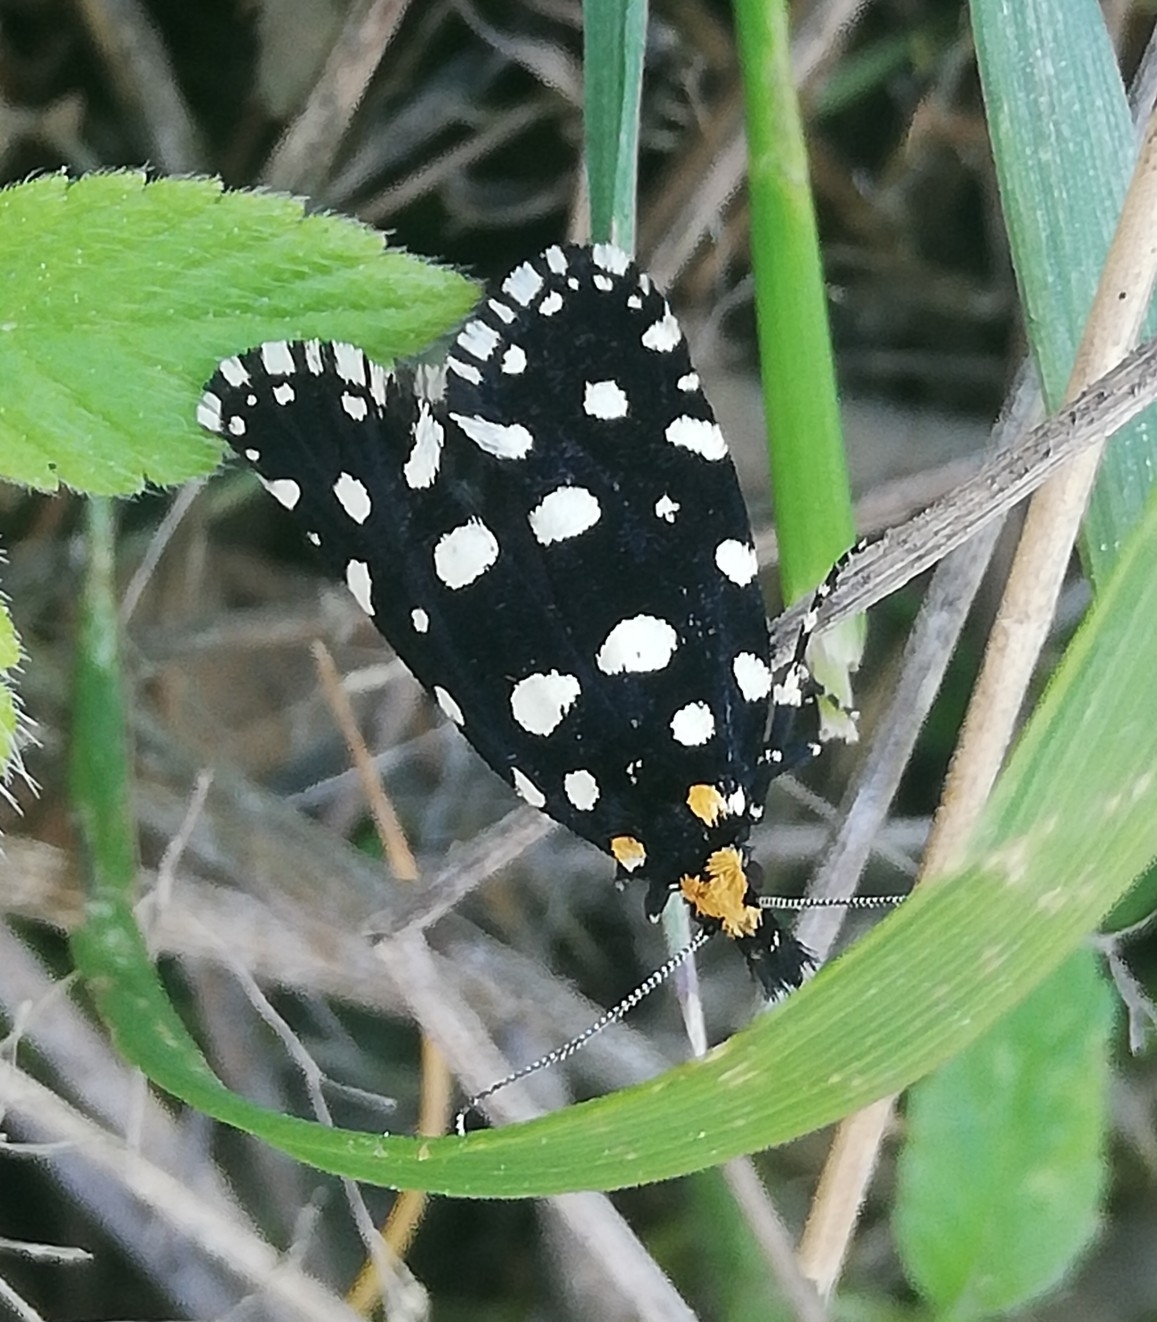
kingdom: Animalia
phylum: Arthropoda
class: Insecta
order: Lepidoptera
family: Tineidae
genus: Euplocamus
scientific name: Euplocamus anthracinalis
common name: Black clothes
